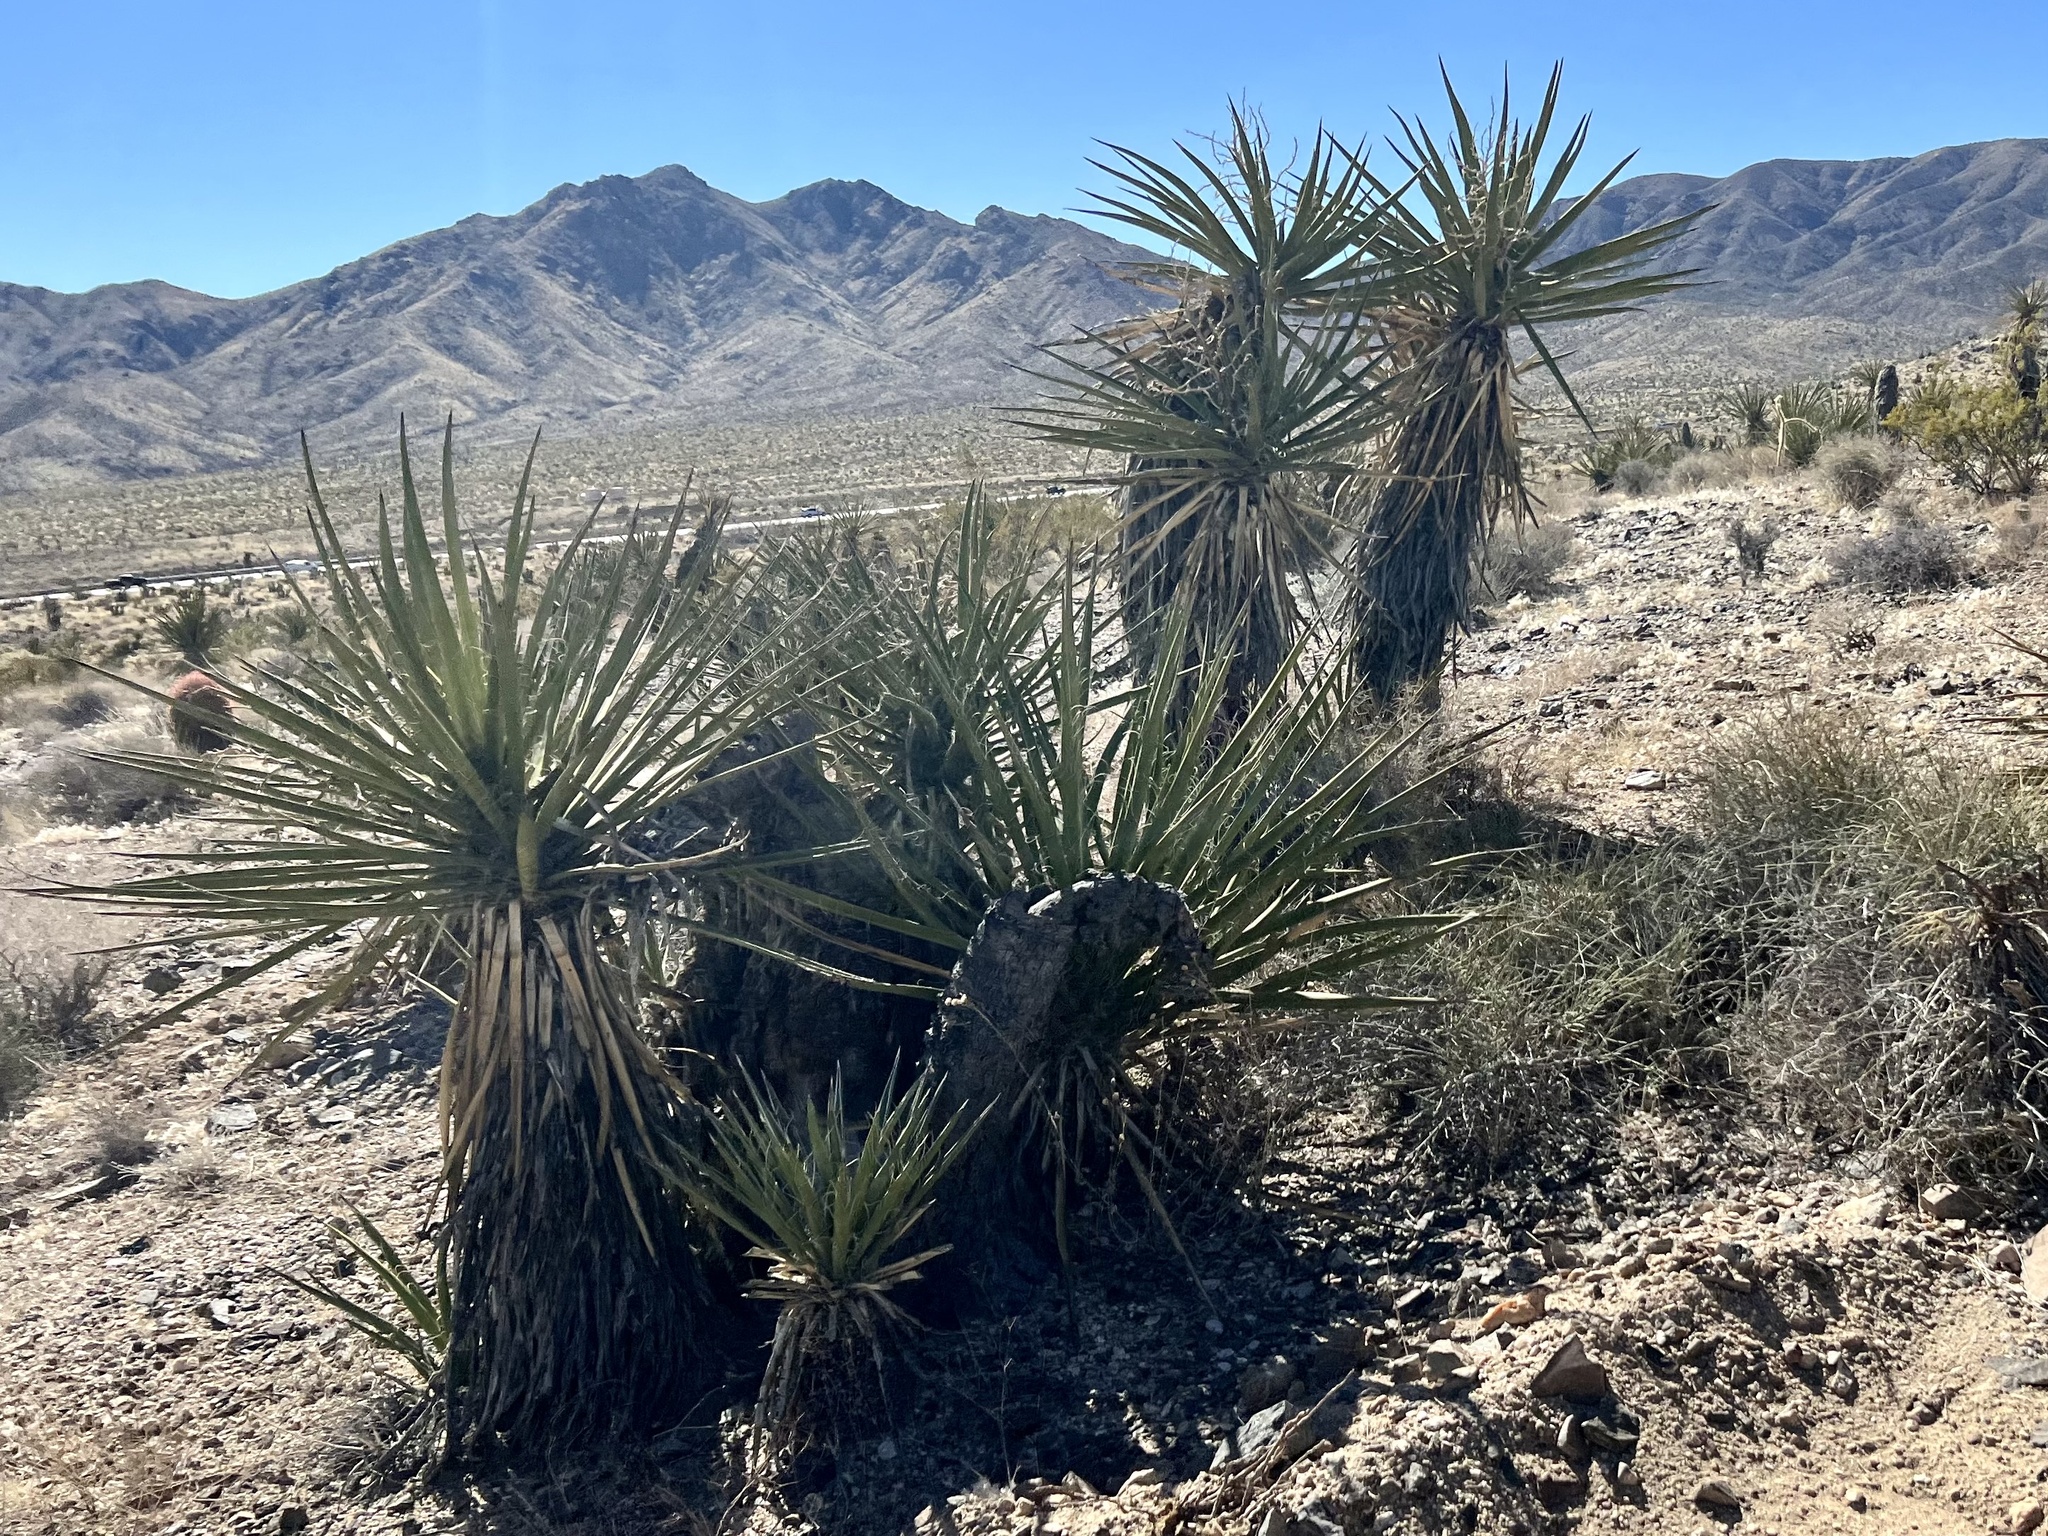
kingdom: Plantae
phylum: Tracheophyta
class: Liliopsida
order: Asparagales
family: Asparagaceae
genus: Yucca
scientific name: Yucca schidigera
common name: Mojave yucca
